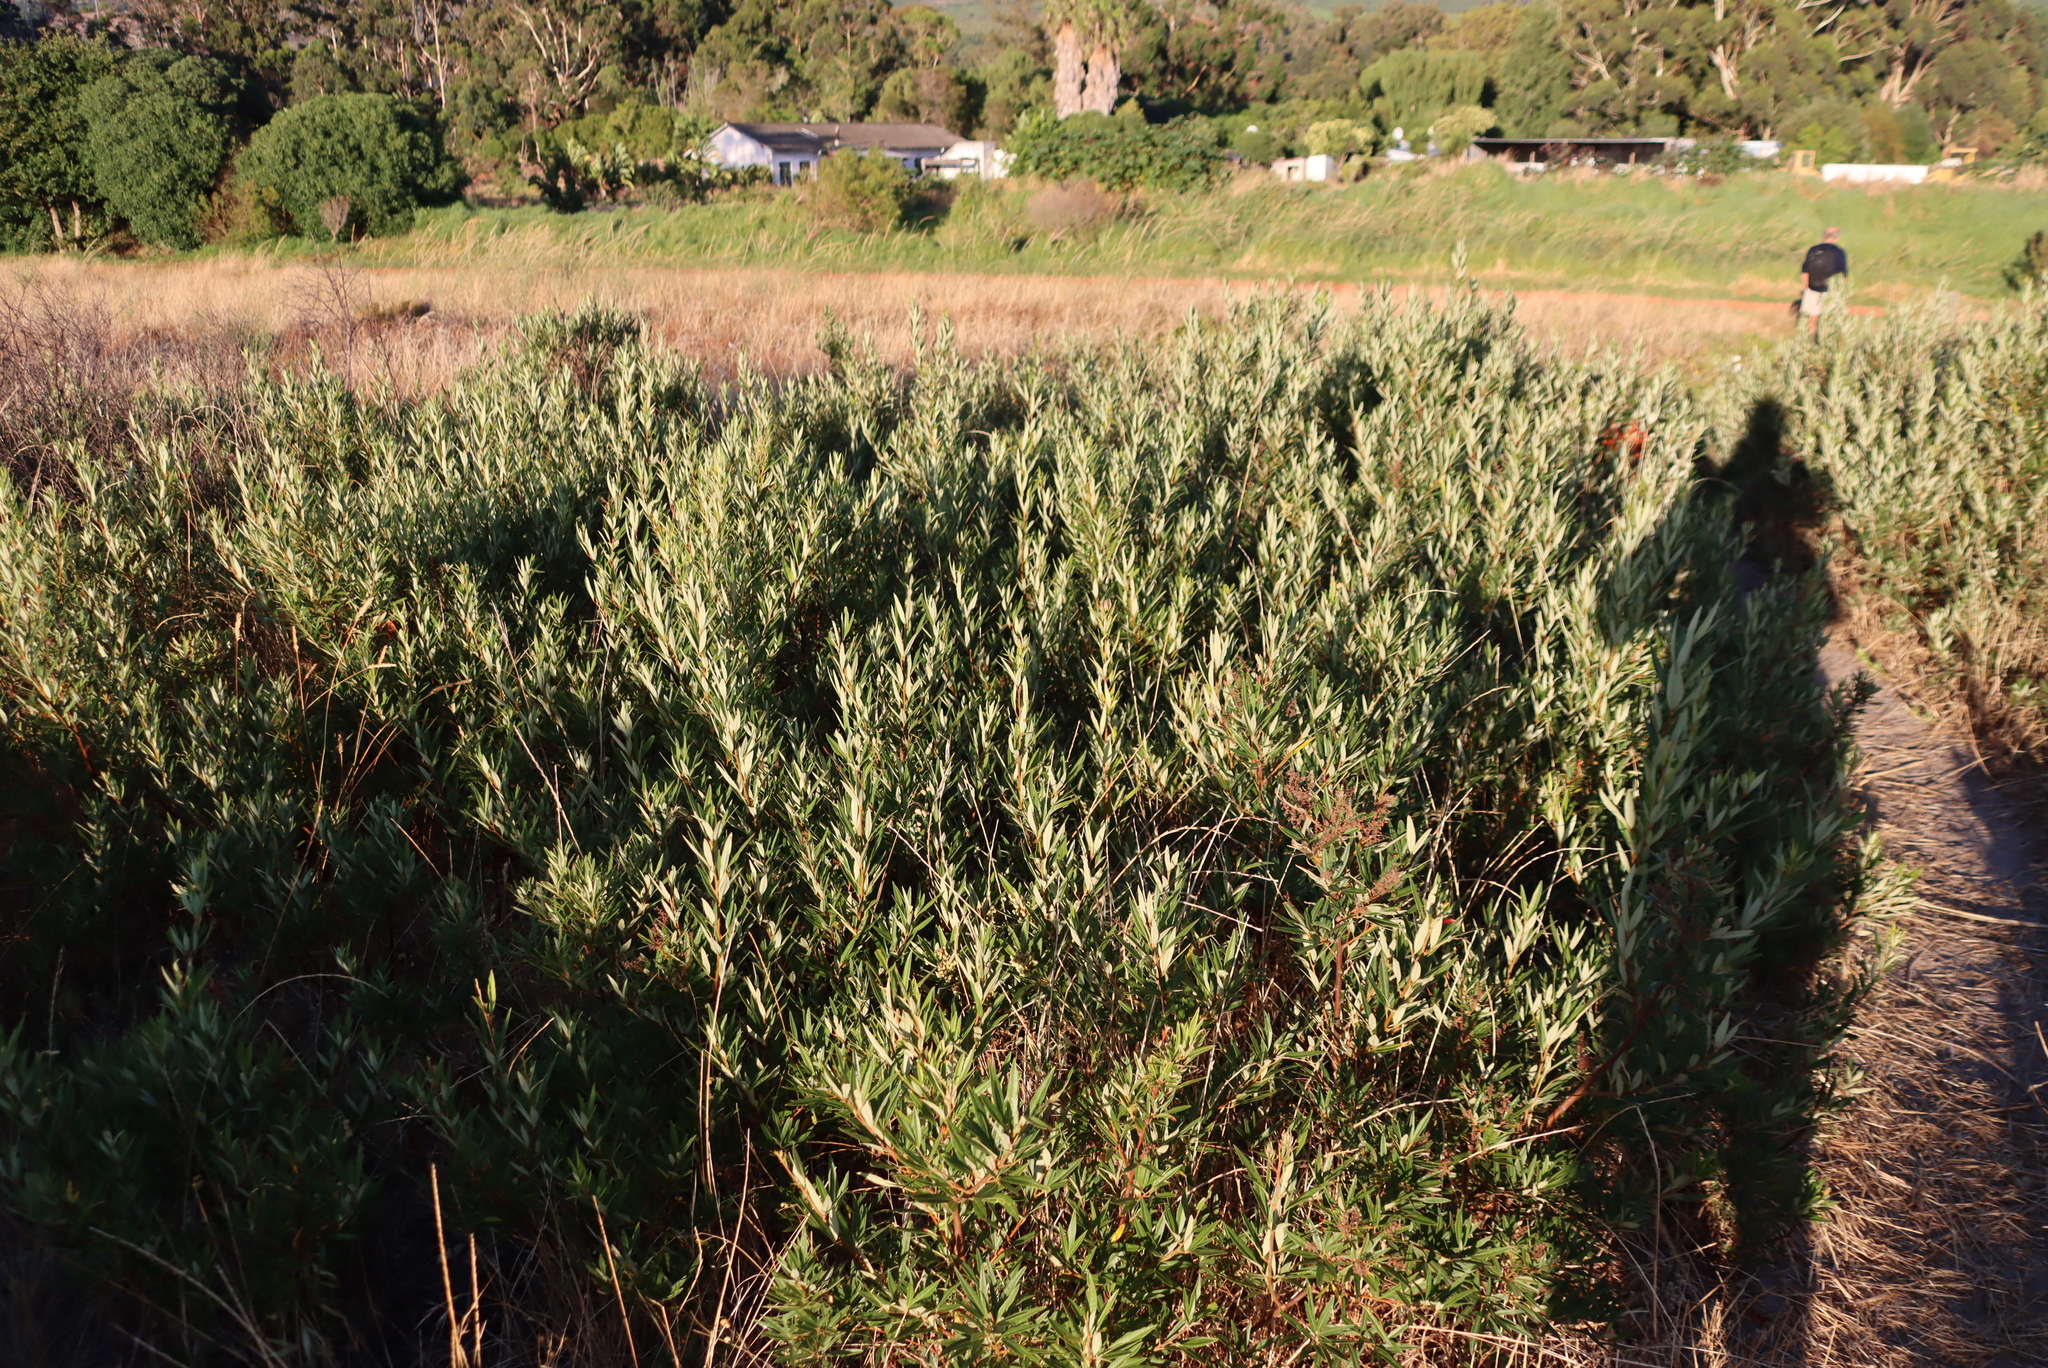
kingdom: Plantae
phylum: Tracheophyta
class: Magnoliopsida
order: Sapindales
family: Anacardiaceae
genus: Searsia
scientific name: Searsia angustifolia
